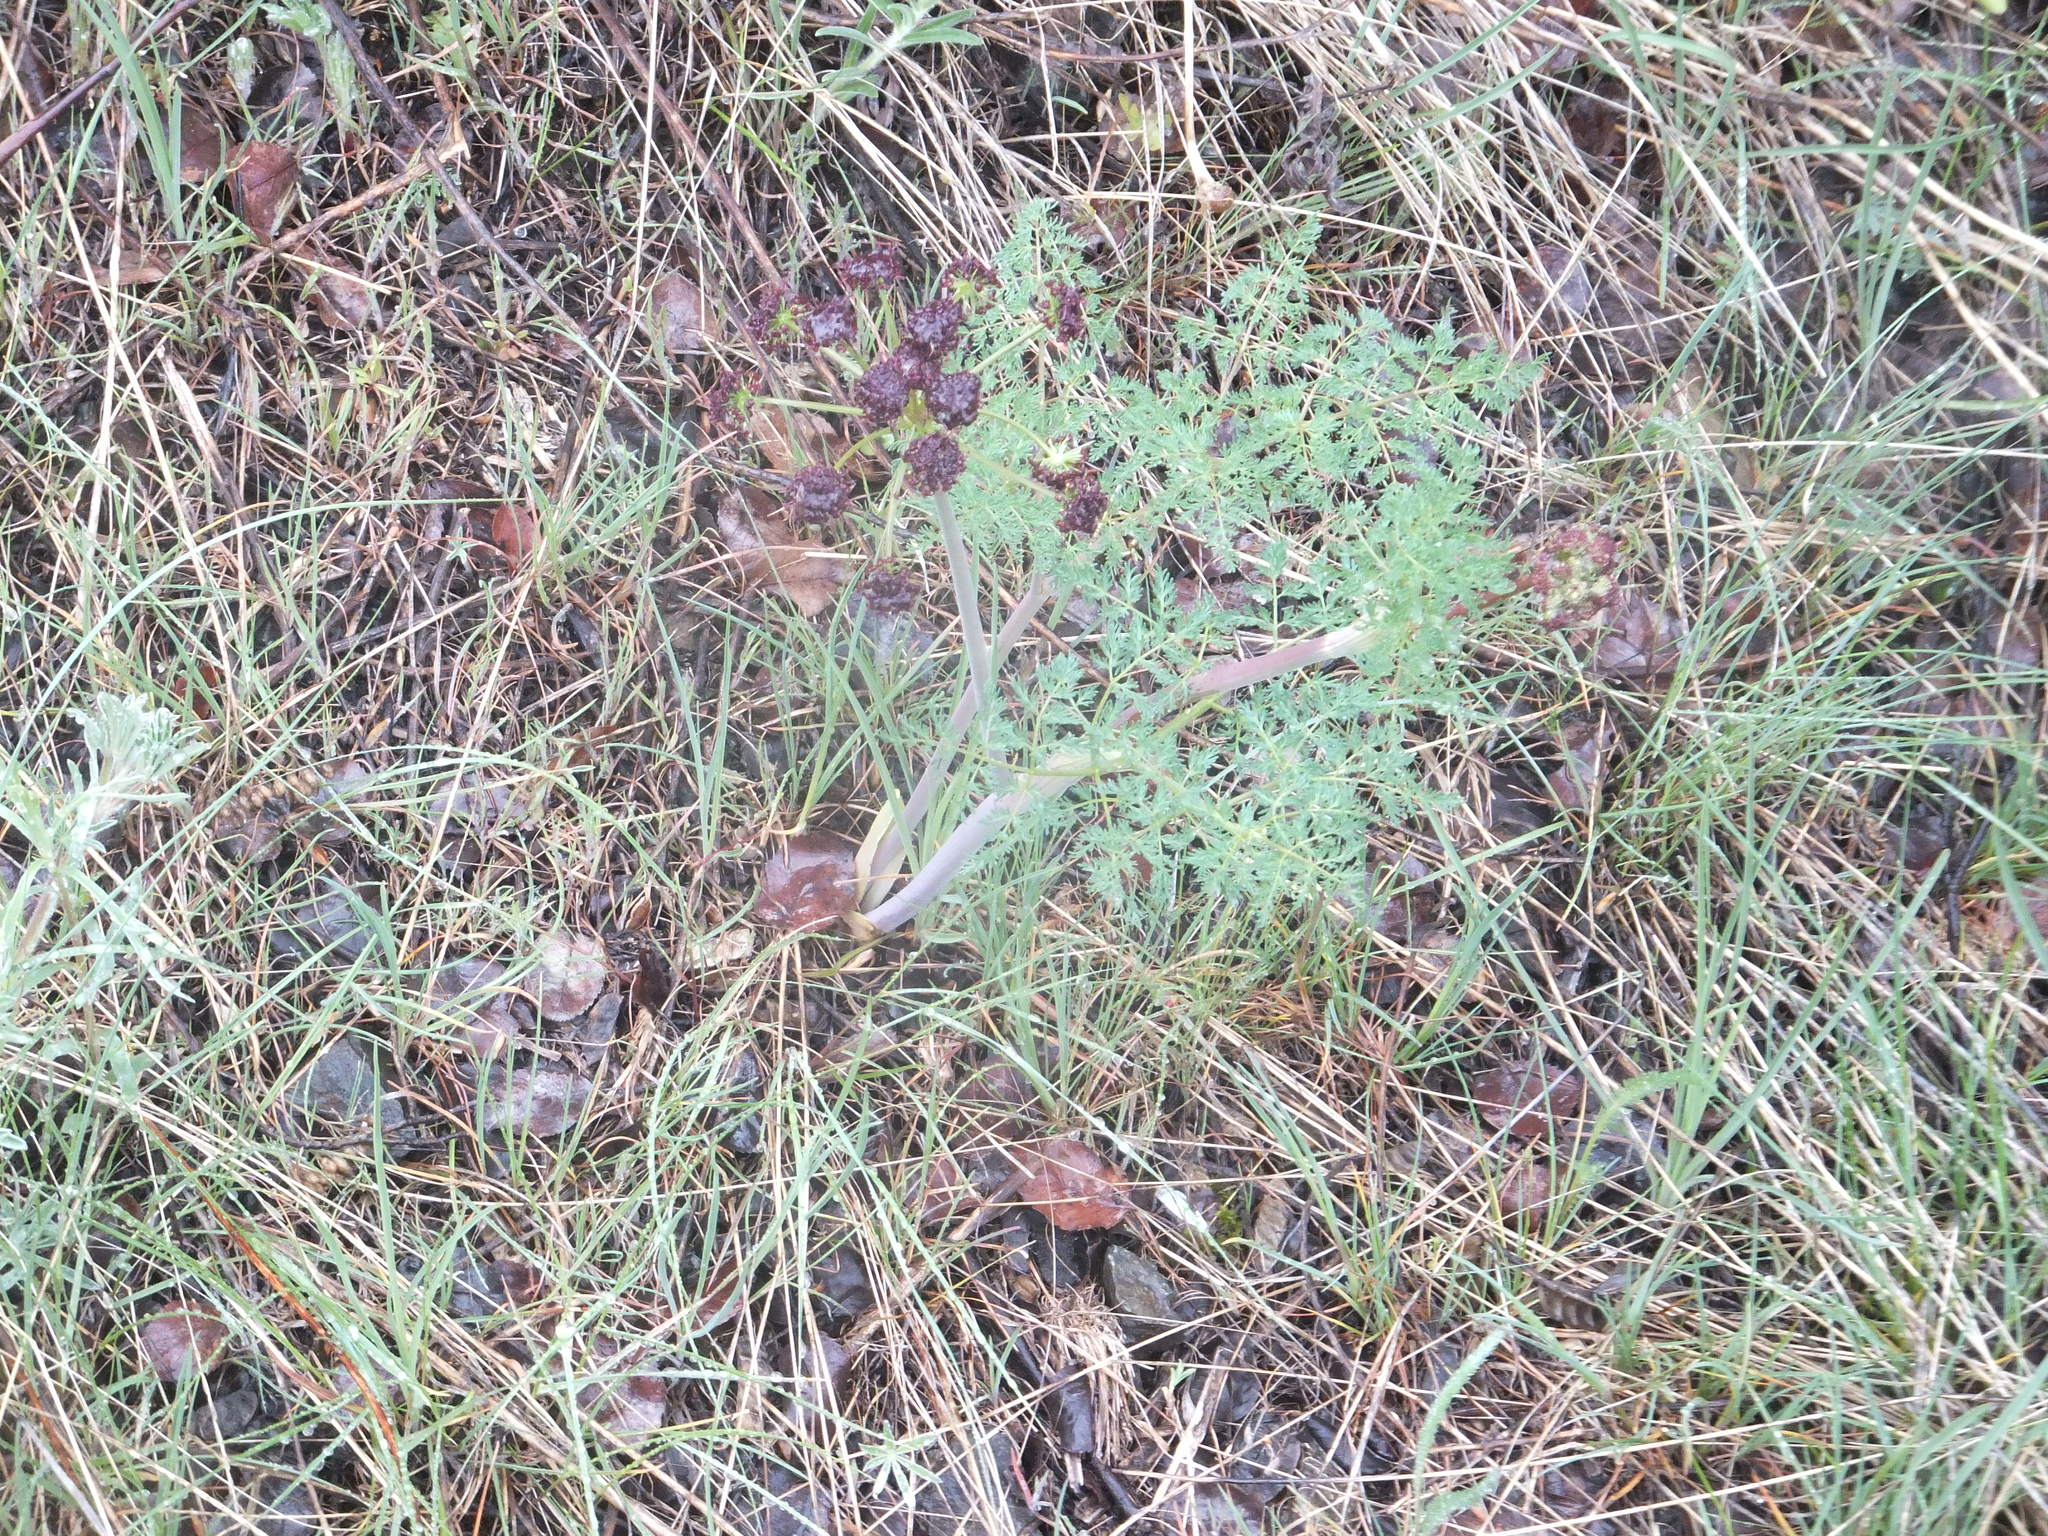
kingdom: Plantae
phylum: Tracheophyta
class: Magnoliopsida
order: Apiales
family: Apiaceae
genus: Lomatium
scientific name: Lomatium multifidum
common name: Carrot-leaved biscuitroot
